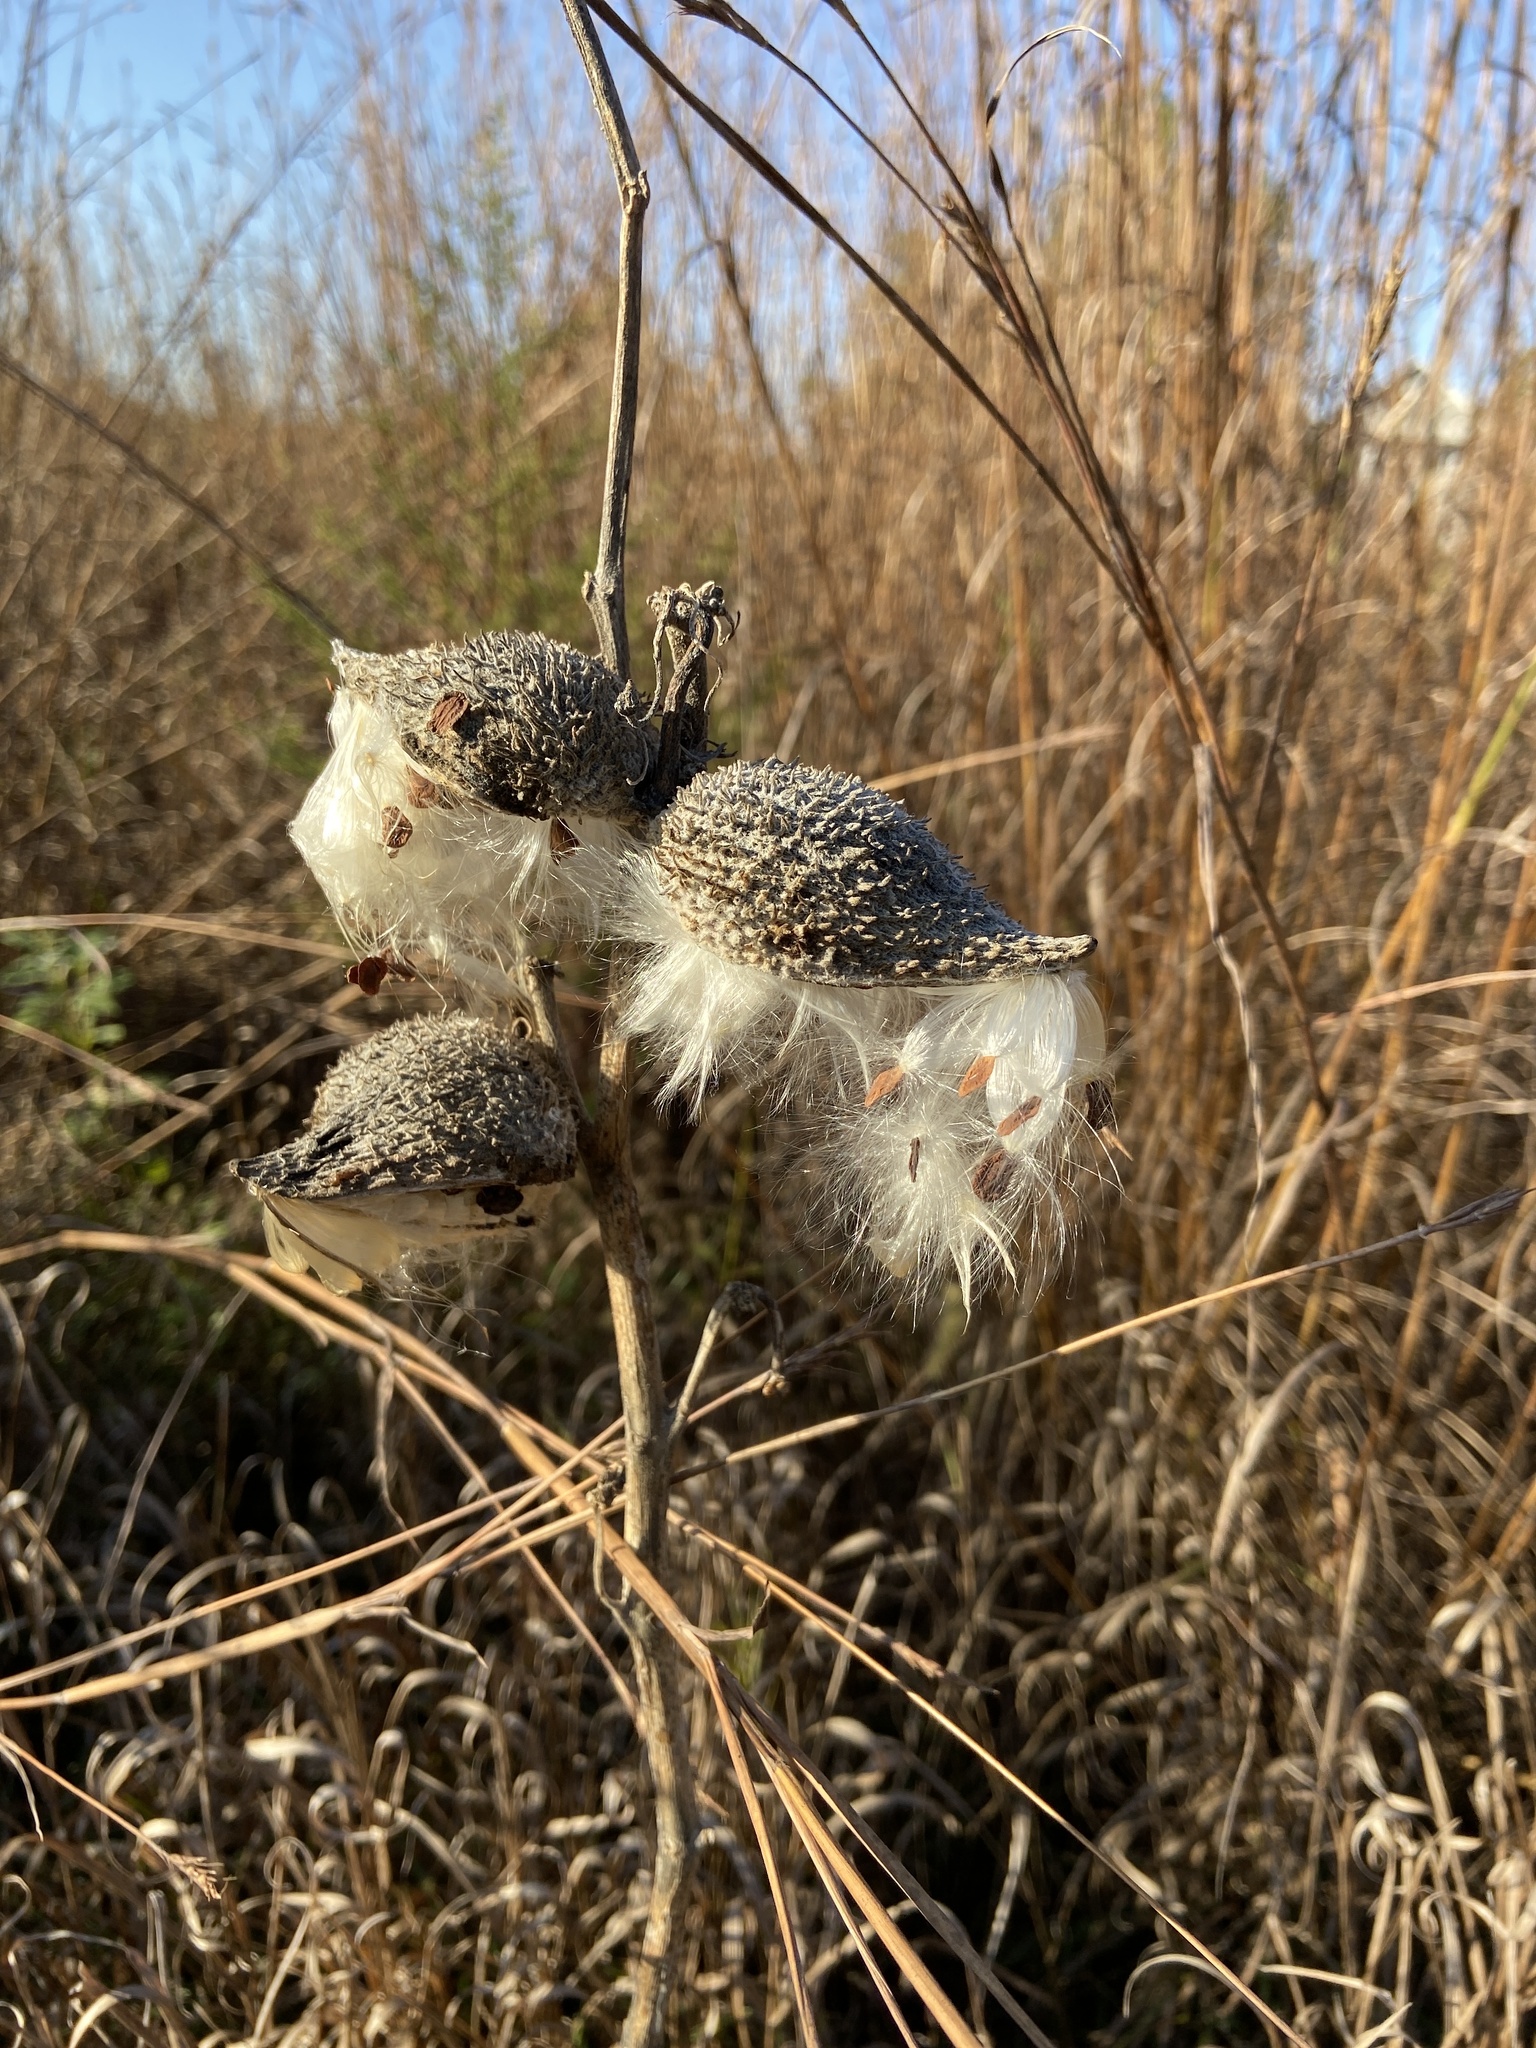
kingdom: Plantae
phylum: Tracheophyta
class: Magnoliopsida
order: Gentianales
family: Apocynaceae
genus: Asclepias
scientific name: Asclepias syriaca
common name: Common milkweed
